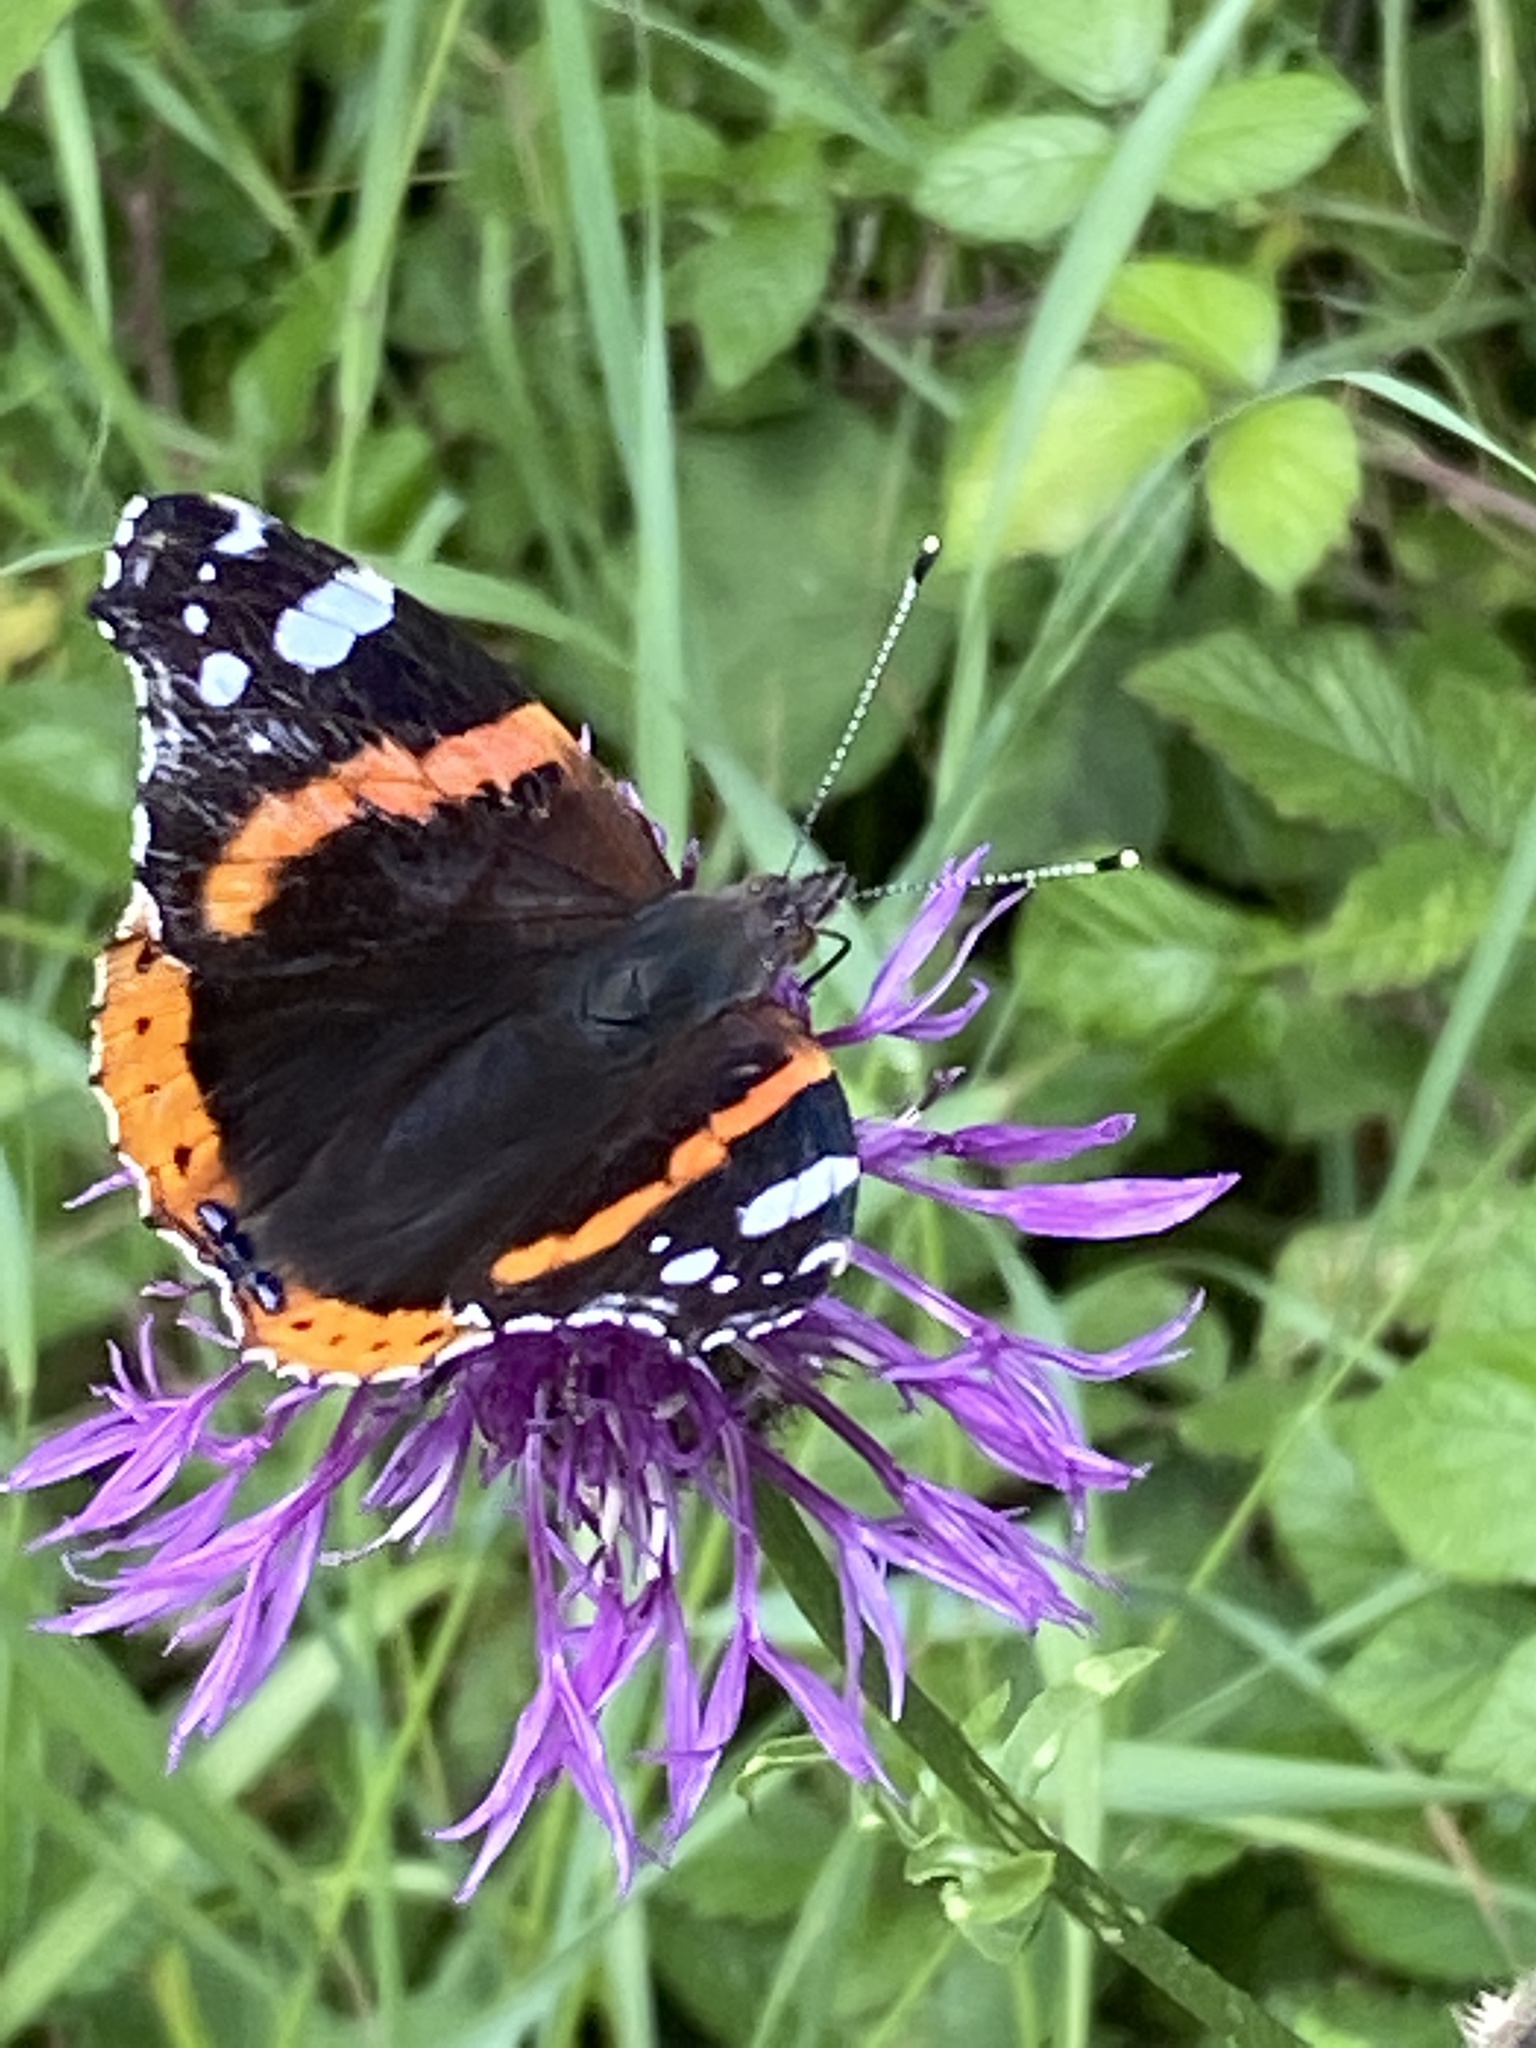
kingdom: Animalia
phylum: Arthropoda
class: Insecta
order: Lepidoptera
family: Nymphalidae
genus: Vanessa
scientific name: Vanessa atalanta
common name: Red admiral
